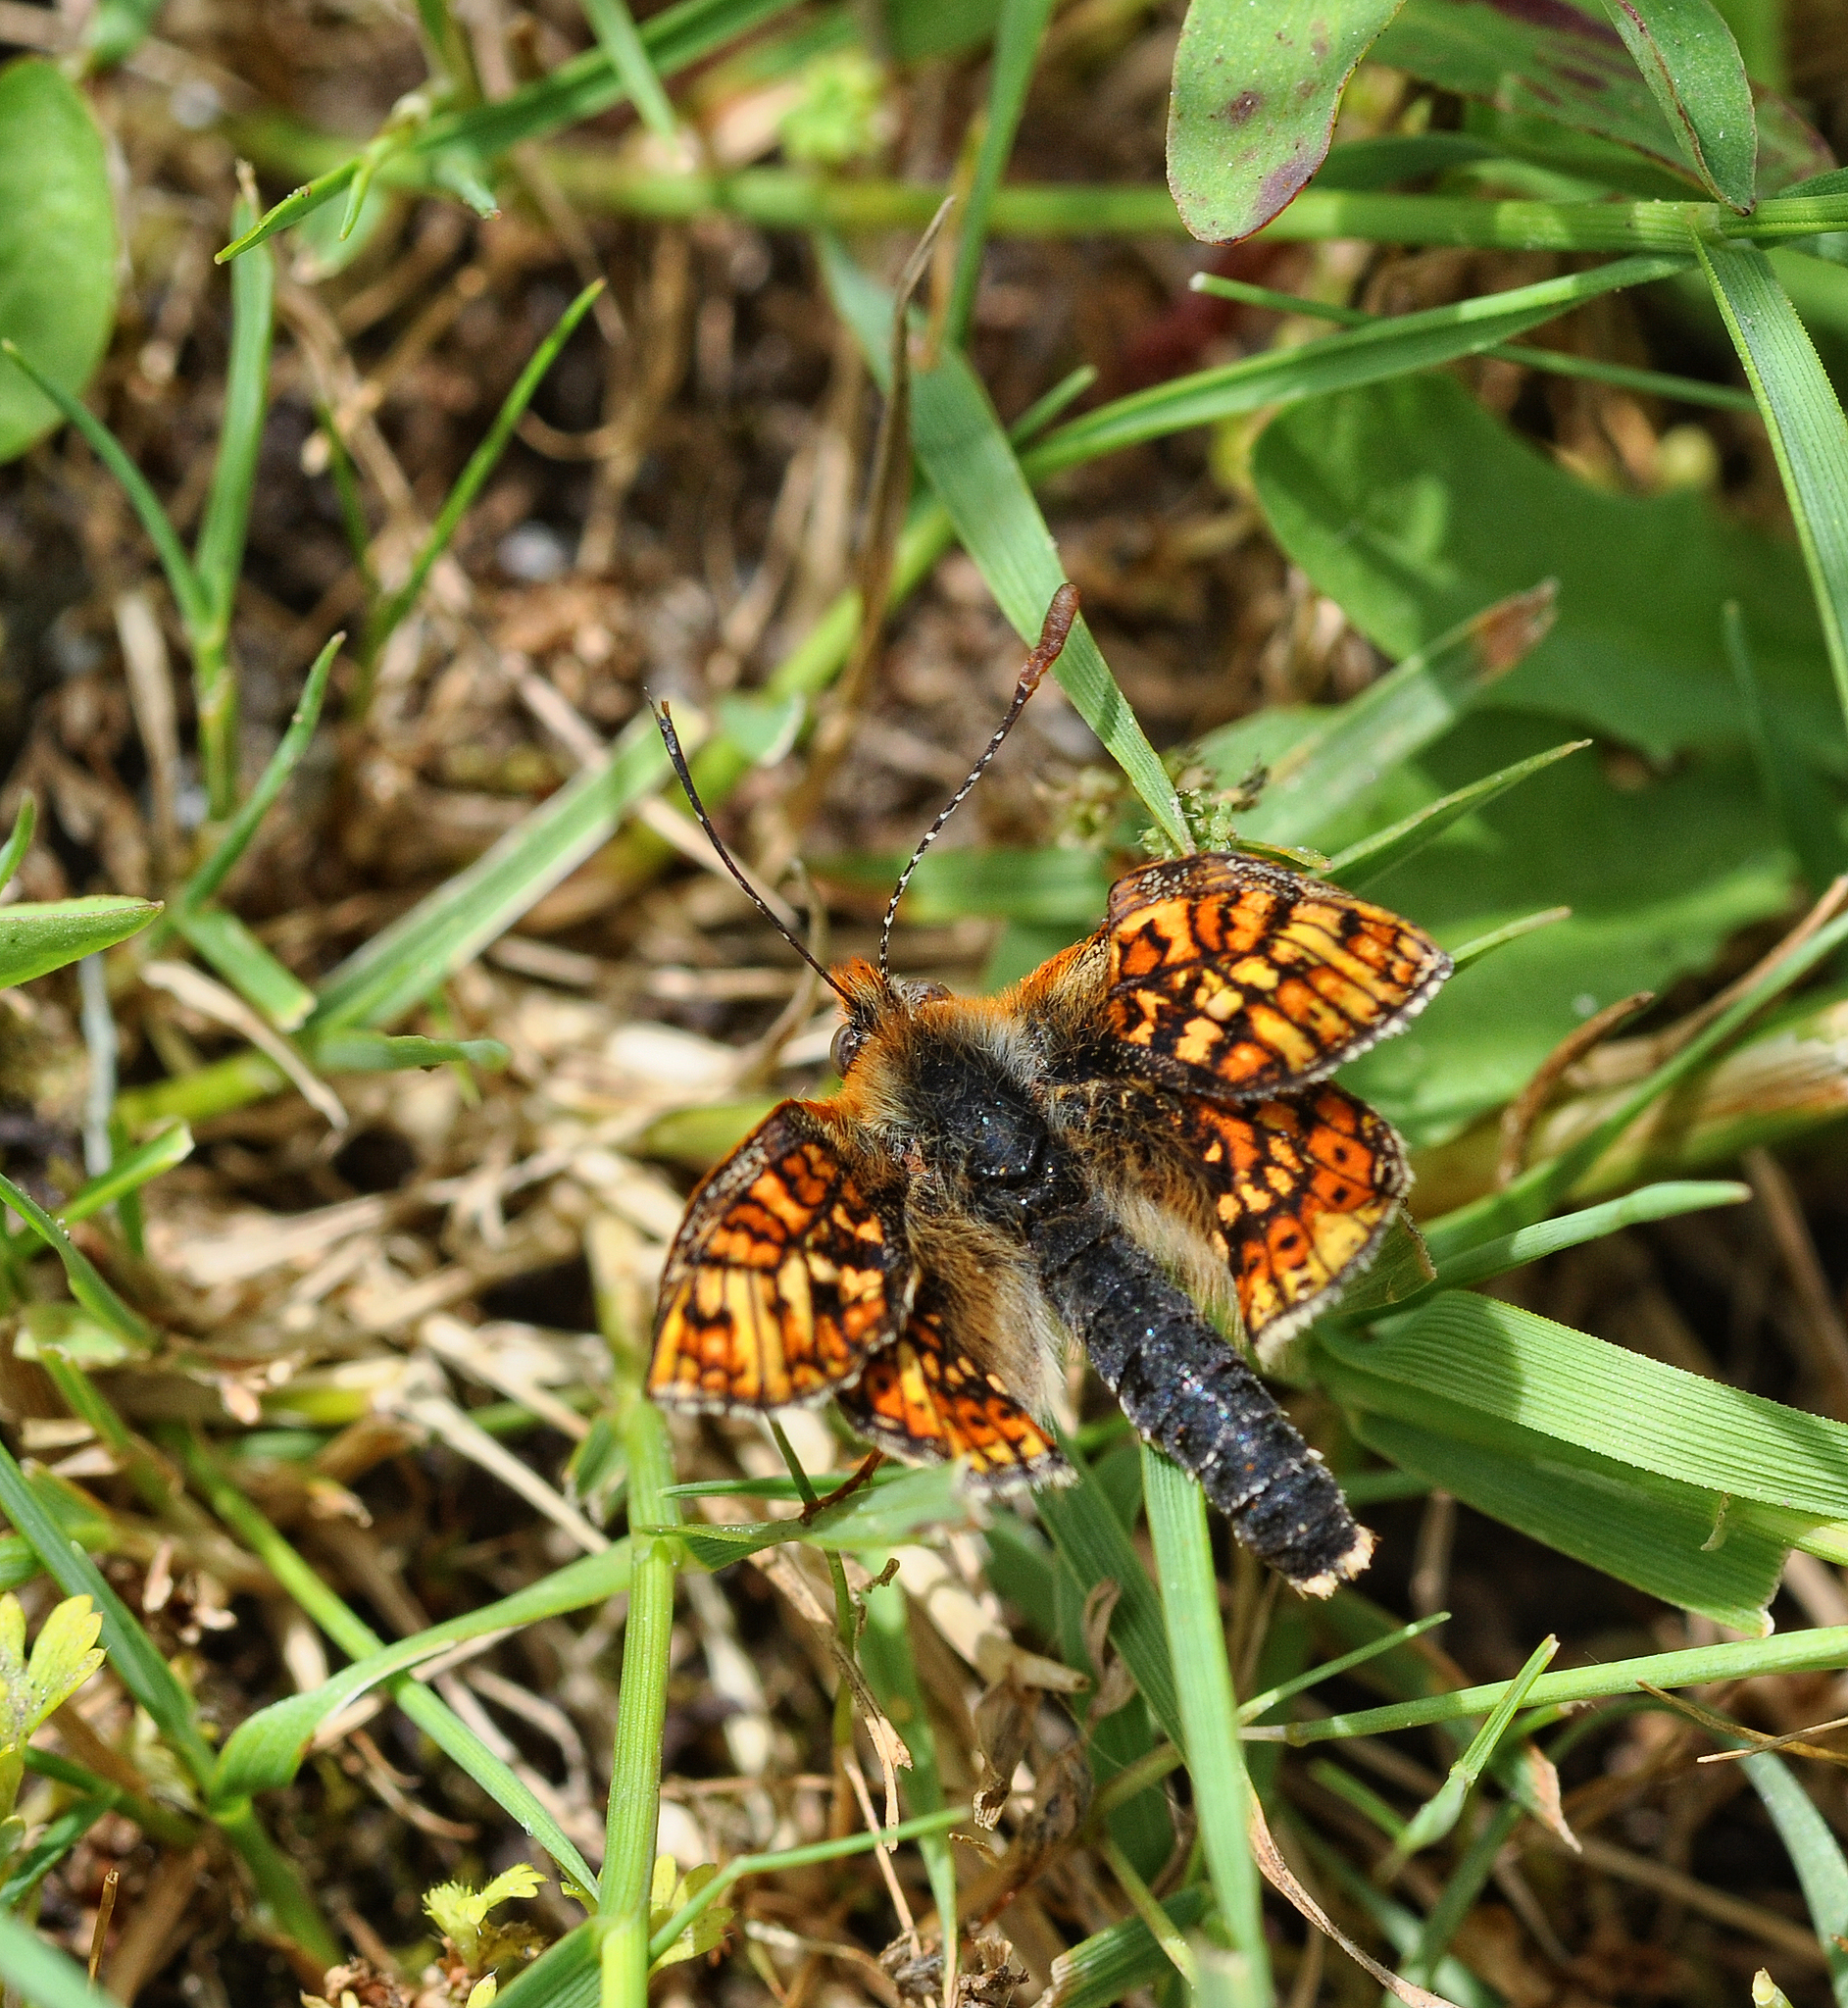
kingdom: Animalia
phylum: Arthropoda
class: Insecta
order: Lepidoptera
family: Nymphalidae
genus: Euphydryas
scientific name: Euphydryas aurinia
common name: Marsh fritillary
